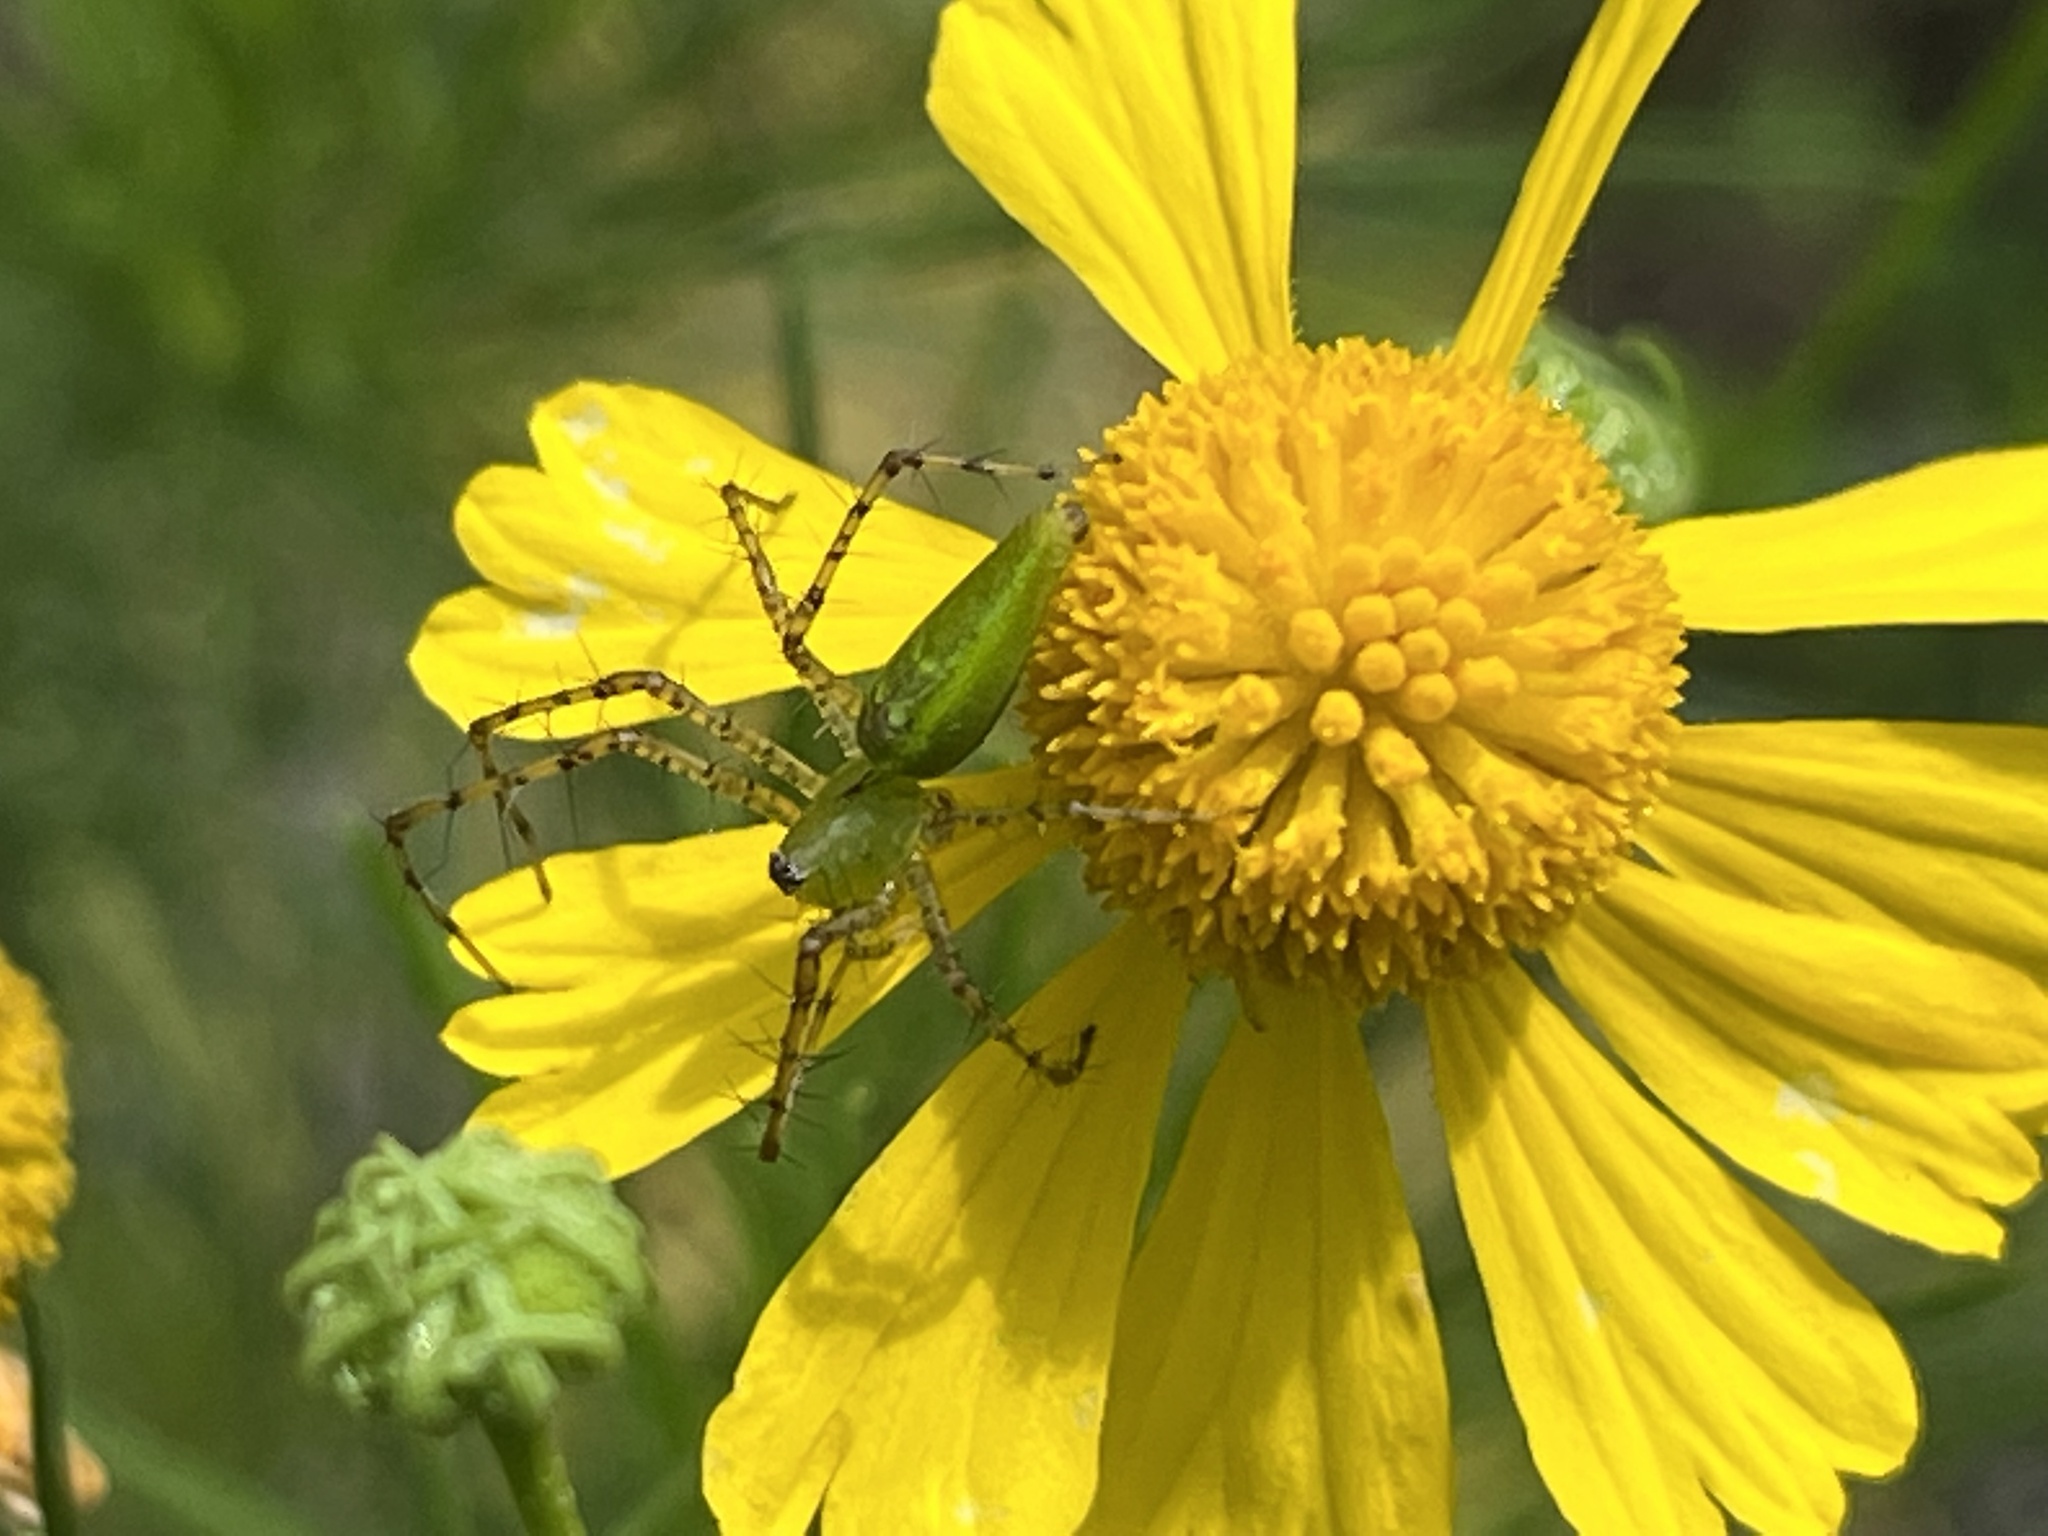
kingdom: Animalia
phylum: Arthropoda
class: Arachnida
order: Araneae
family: Oxyopidae
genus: Peucetia
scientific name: Peucetia viridans
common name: Lynx spiders
